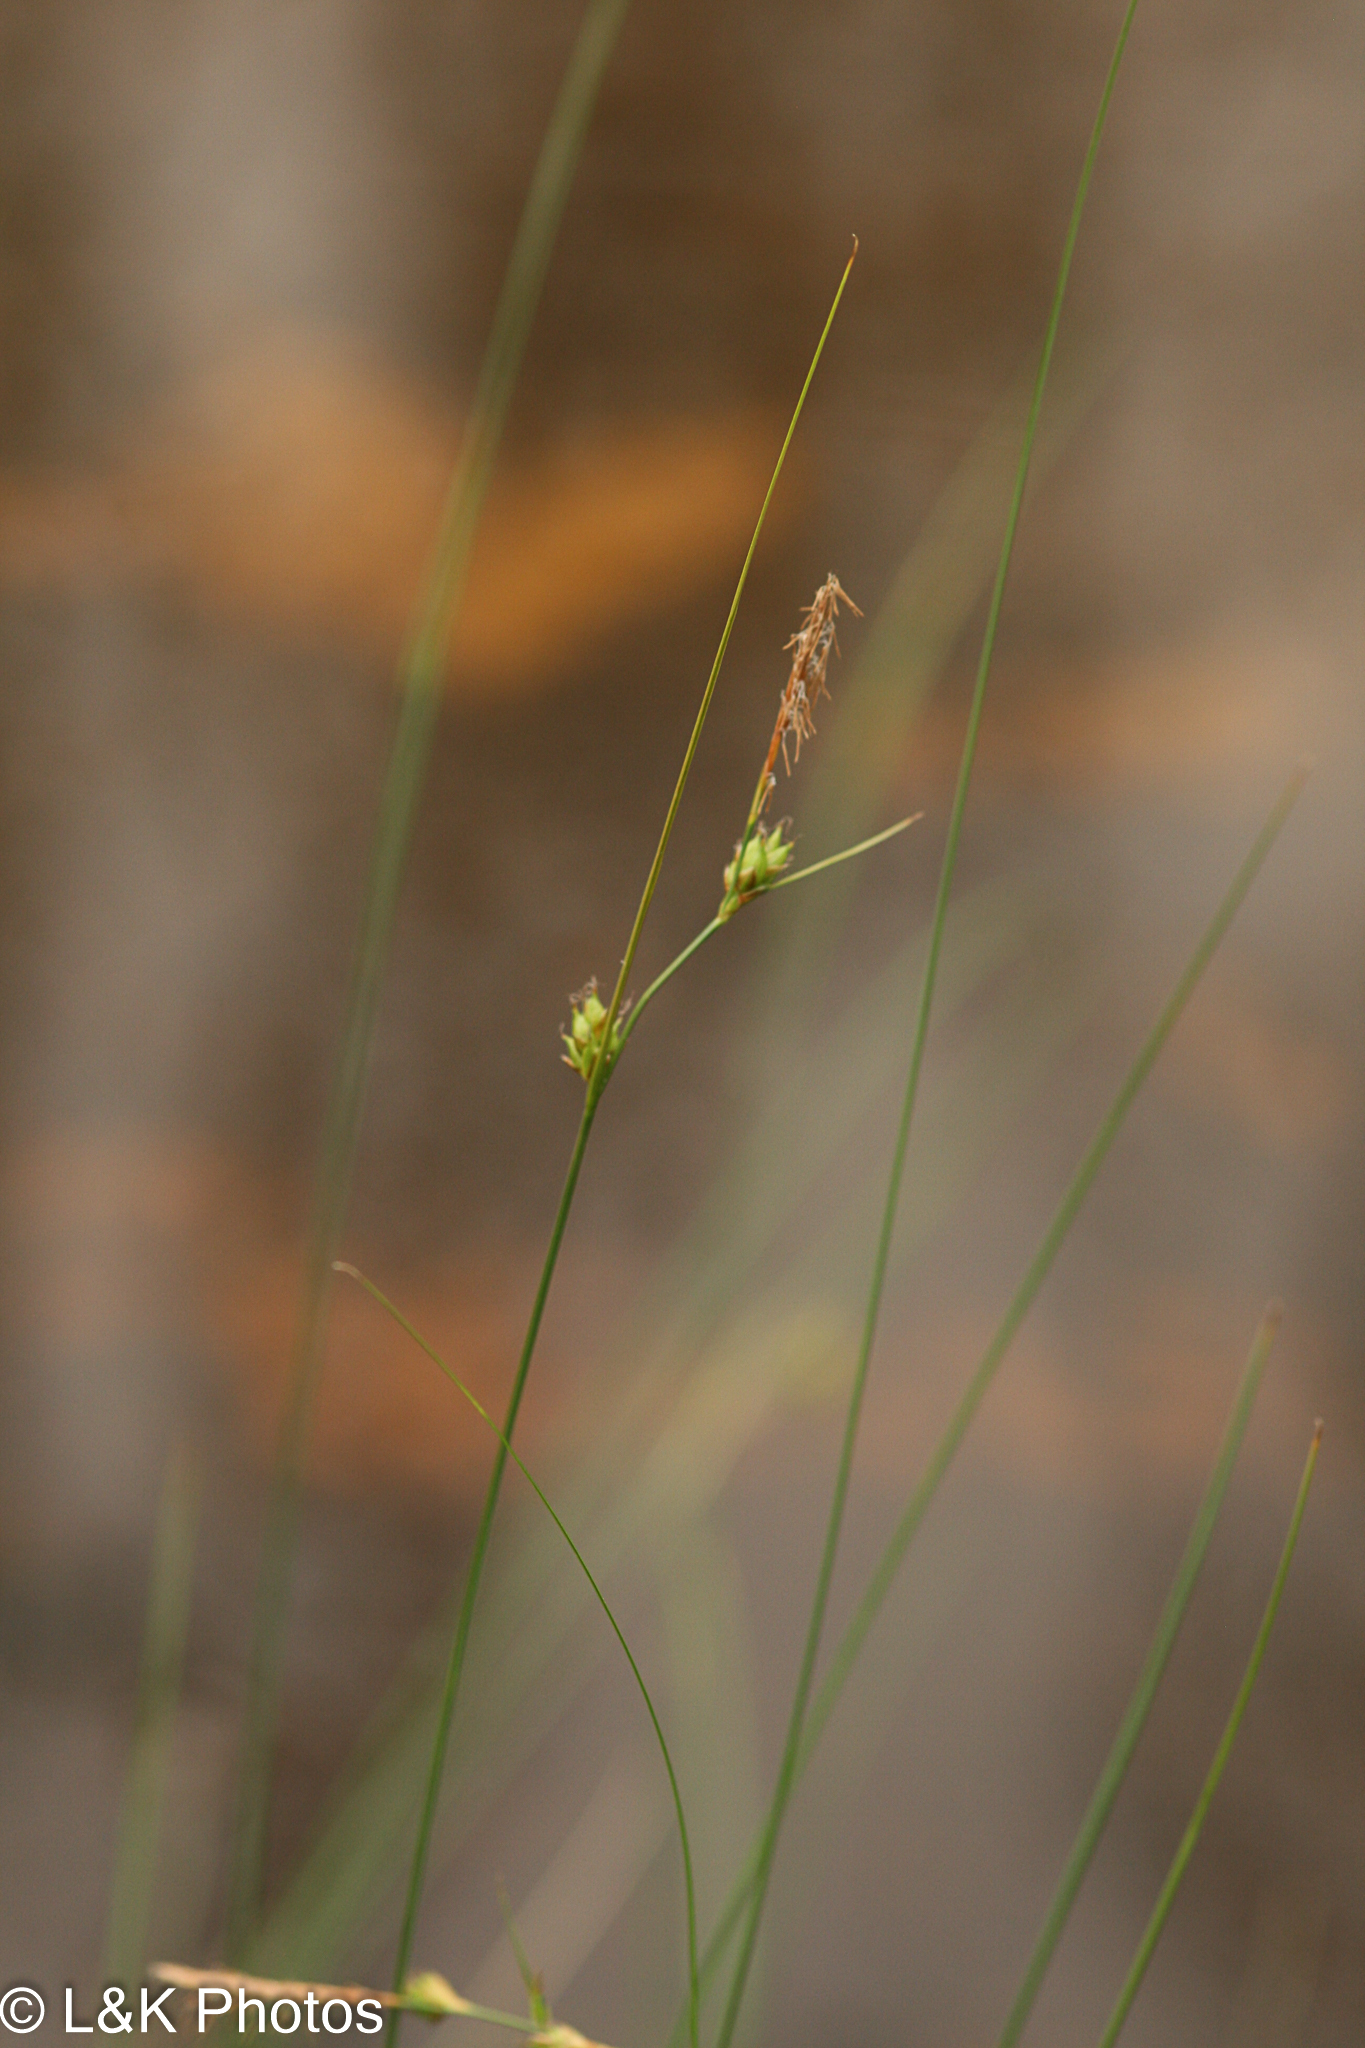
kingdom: Plantae
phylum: Tracheophyta
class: Liliopsida
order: Poales
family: Cyperaceae
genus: Carex
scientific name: Carex oligosperma
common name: Few-seed sedge
